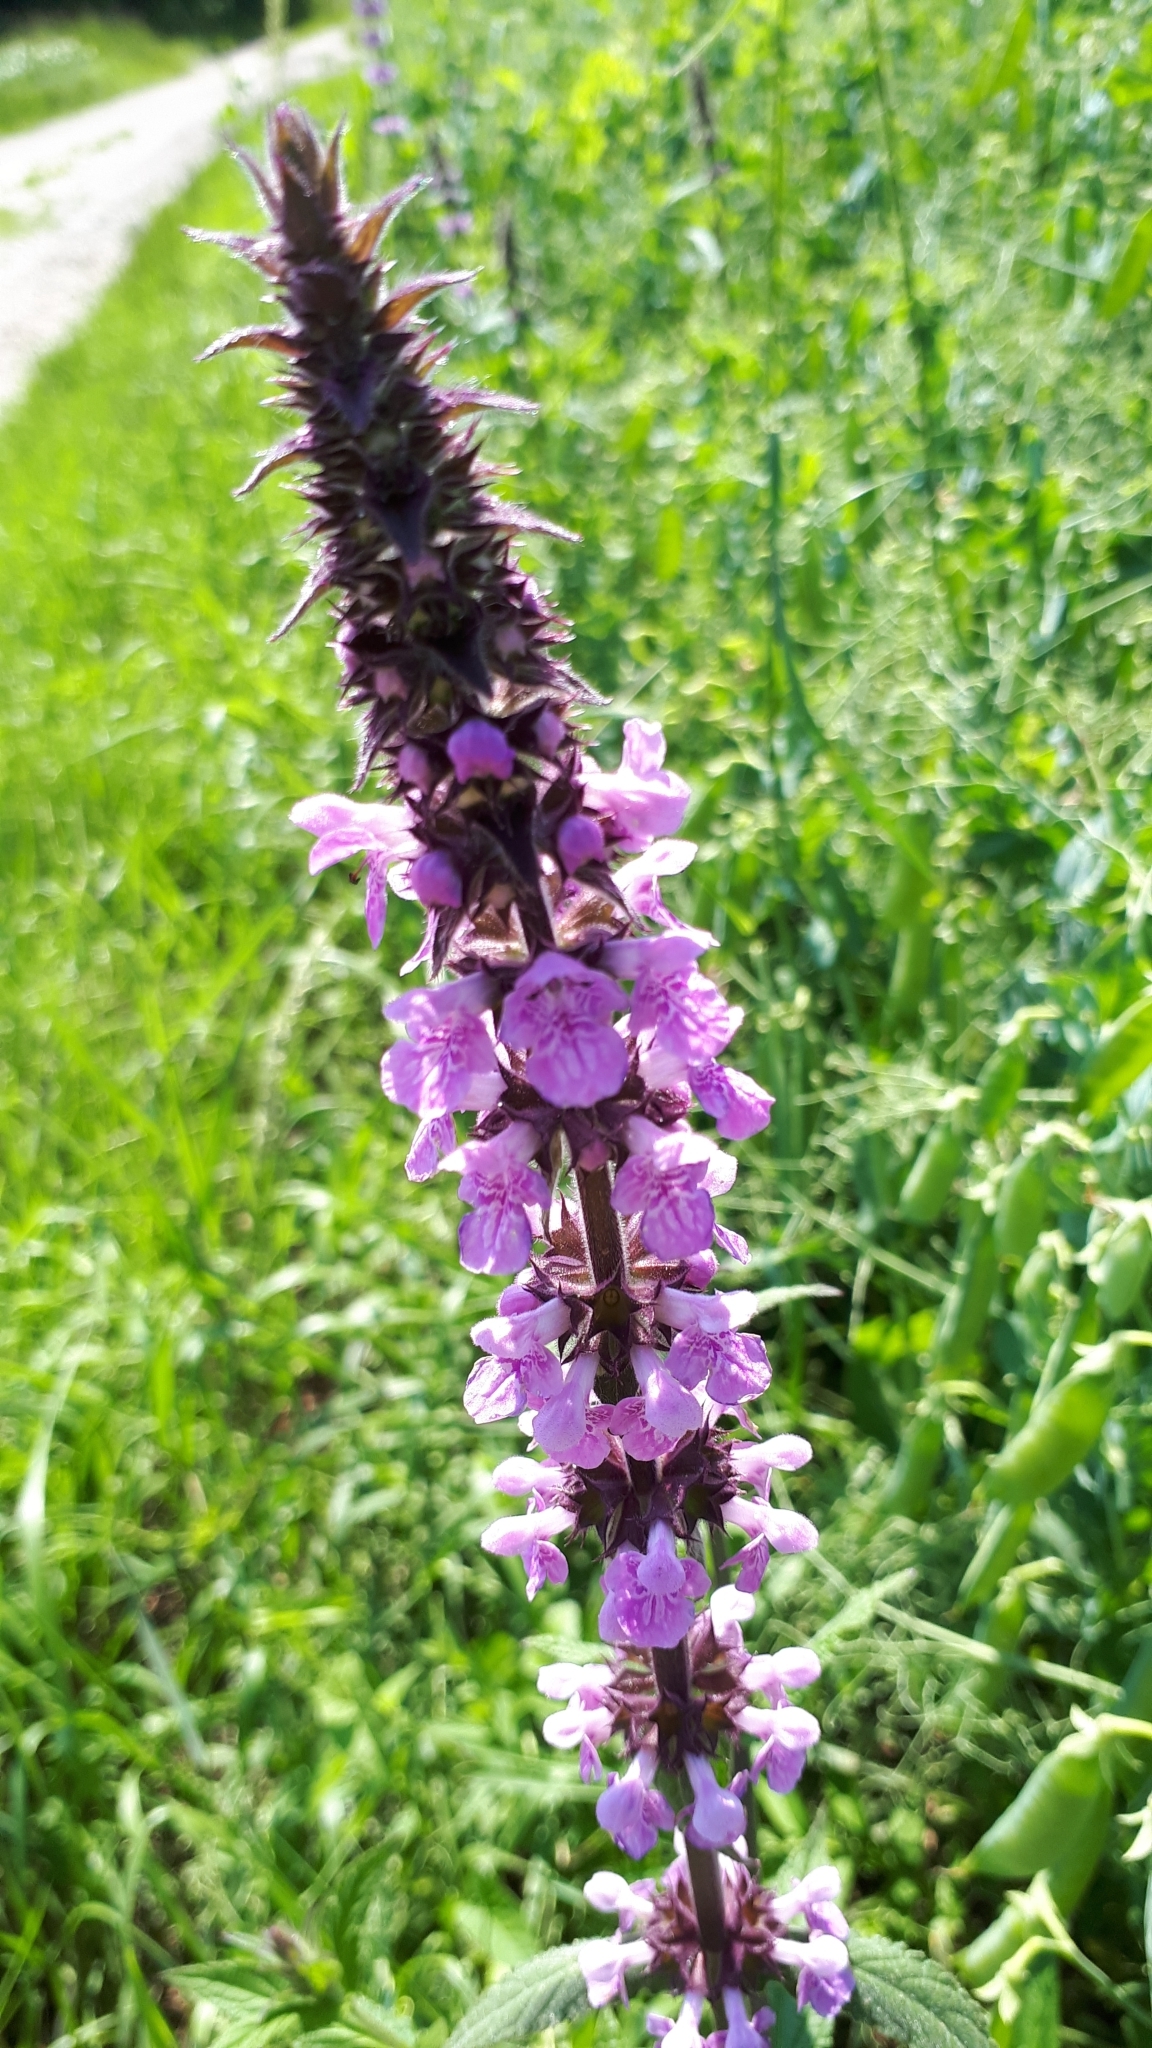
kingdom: Plantae
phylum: Tracheophyta
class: Magnoliopsida
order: Lamiales
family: Lamiaceae
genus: Stachys
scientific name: Stachys palustris
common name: Marsh woundwort
